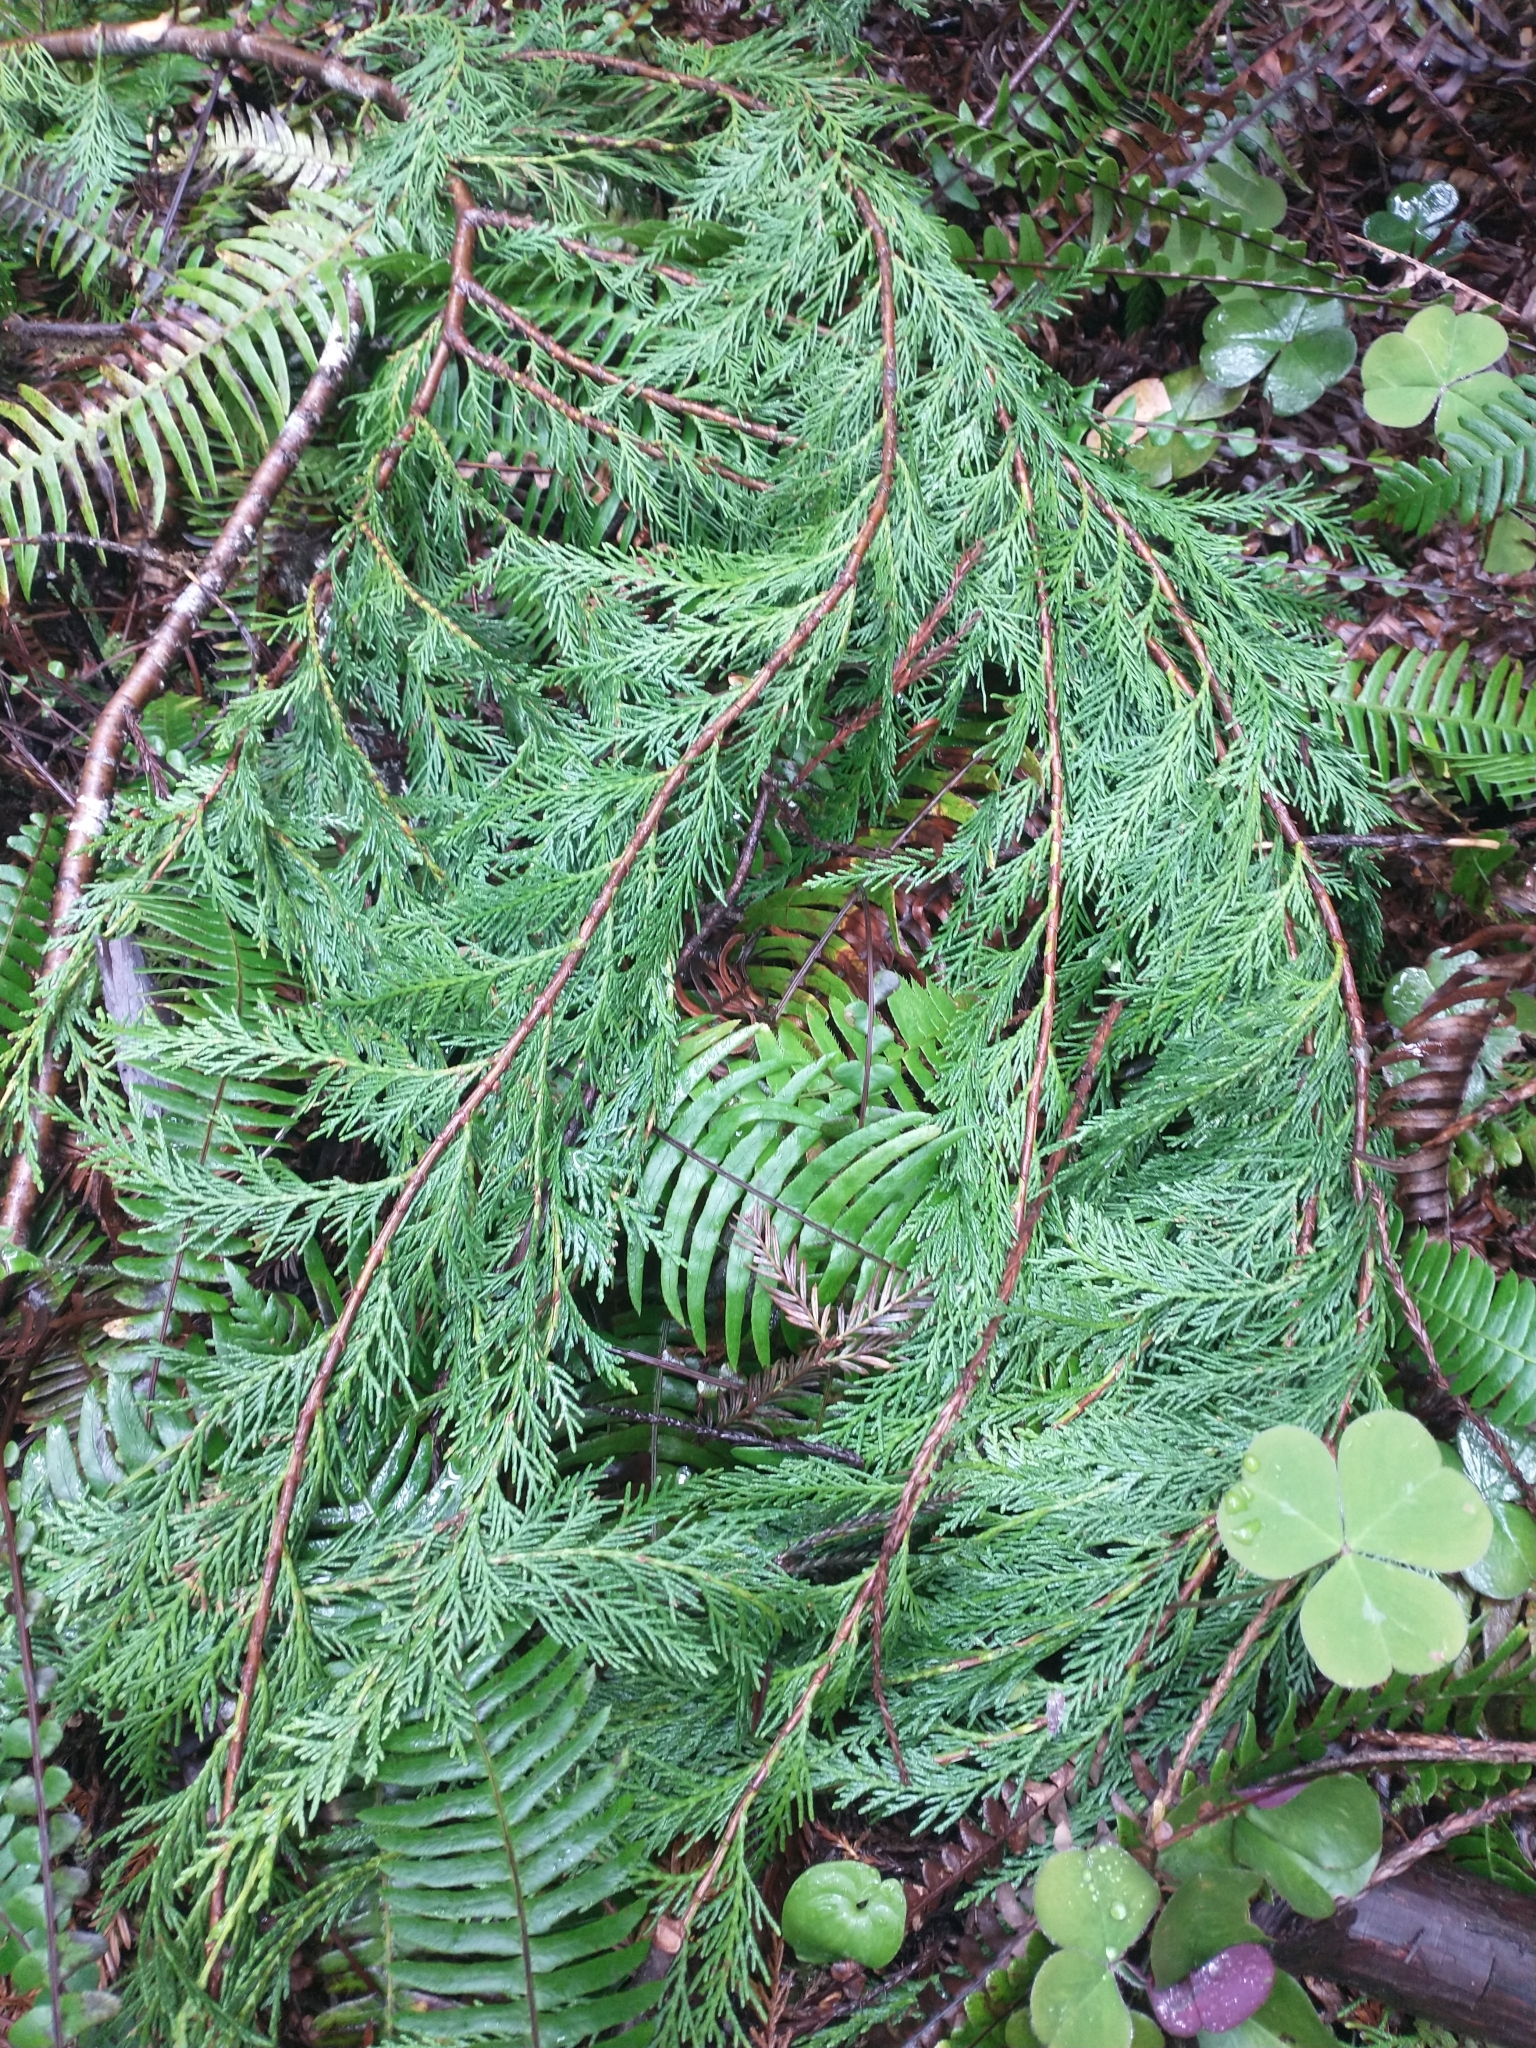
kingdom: Plantae
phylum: Tracheophyta
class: Pinopsida
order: Pinales
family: Cupressaceae
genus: Chamaecyparis
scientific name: Chamaecyparis lawsoniana
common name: Lawson's cypress
